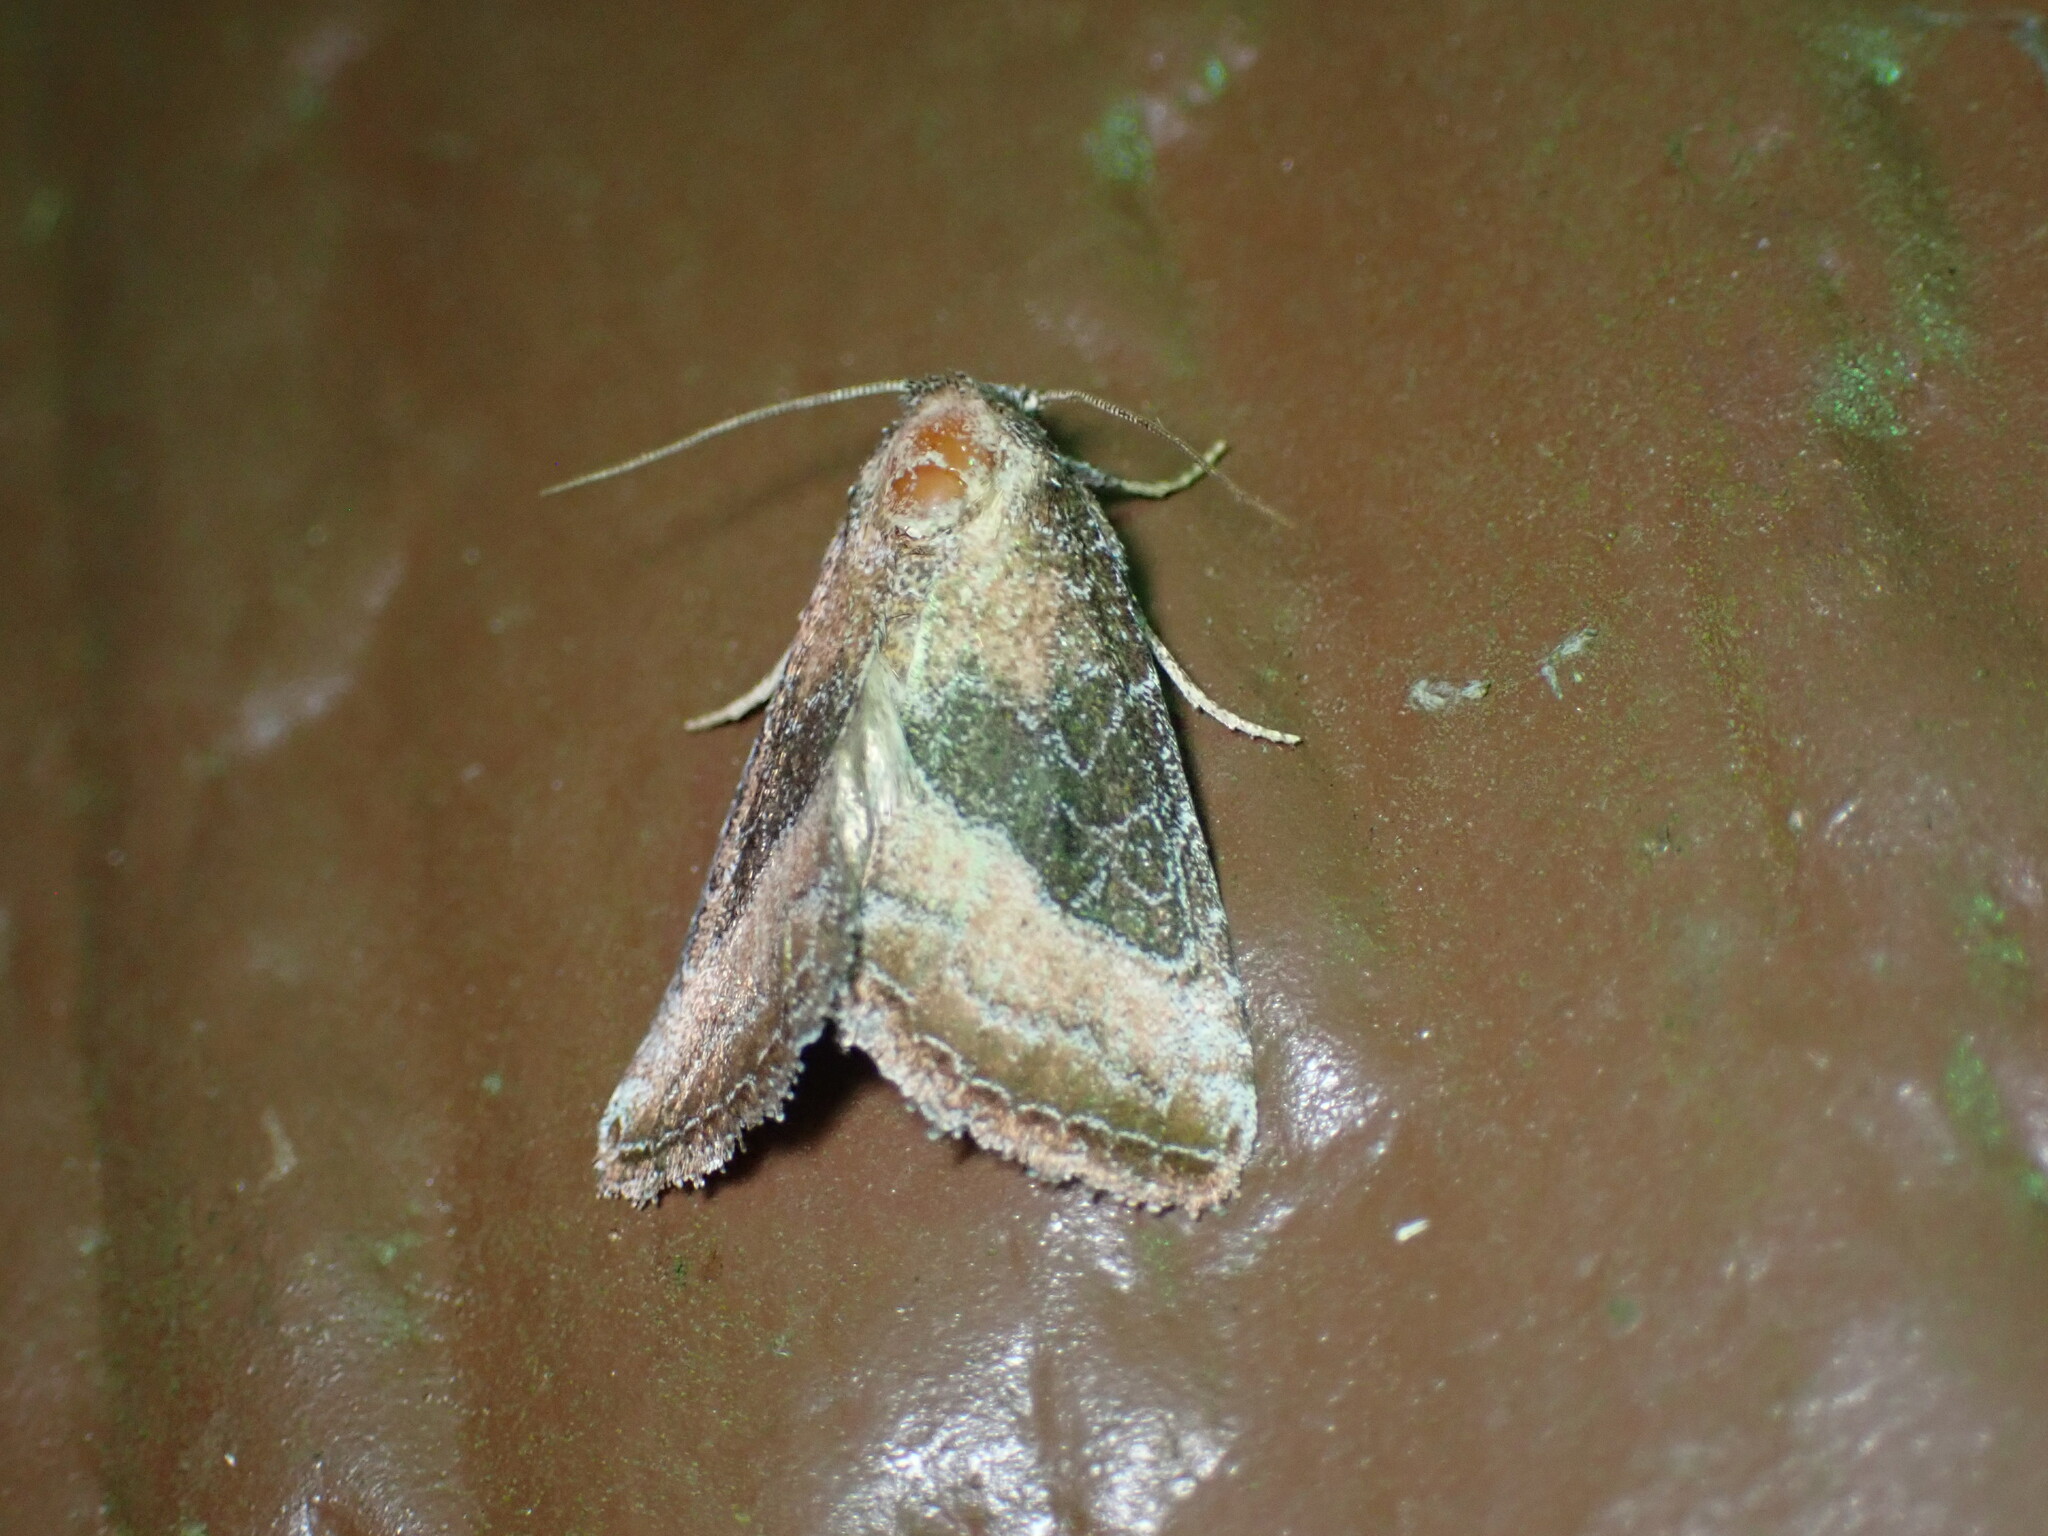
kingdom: Animalia
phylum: Arthropoda
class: Insecta
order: Lepidoptera
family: Noctuidae
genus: Ogdoconta
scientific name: Ogdoconta cinereola
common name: Common pinkband
